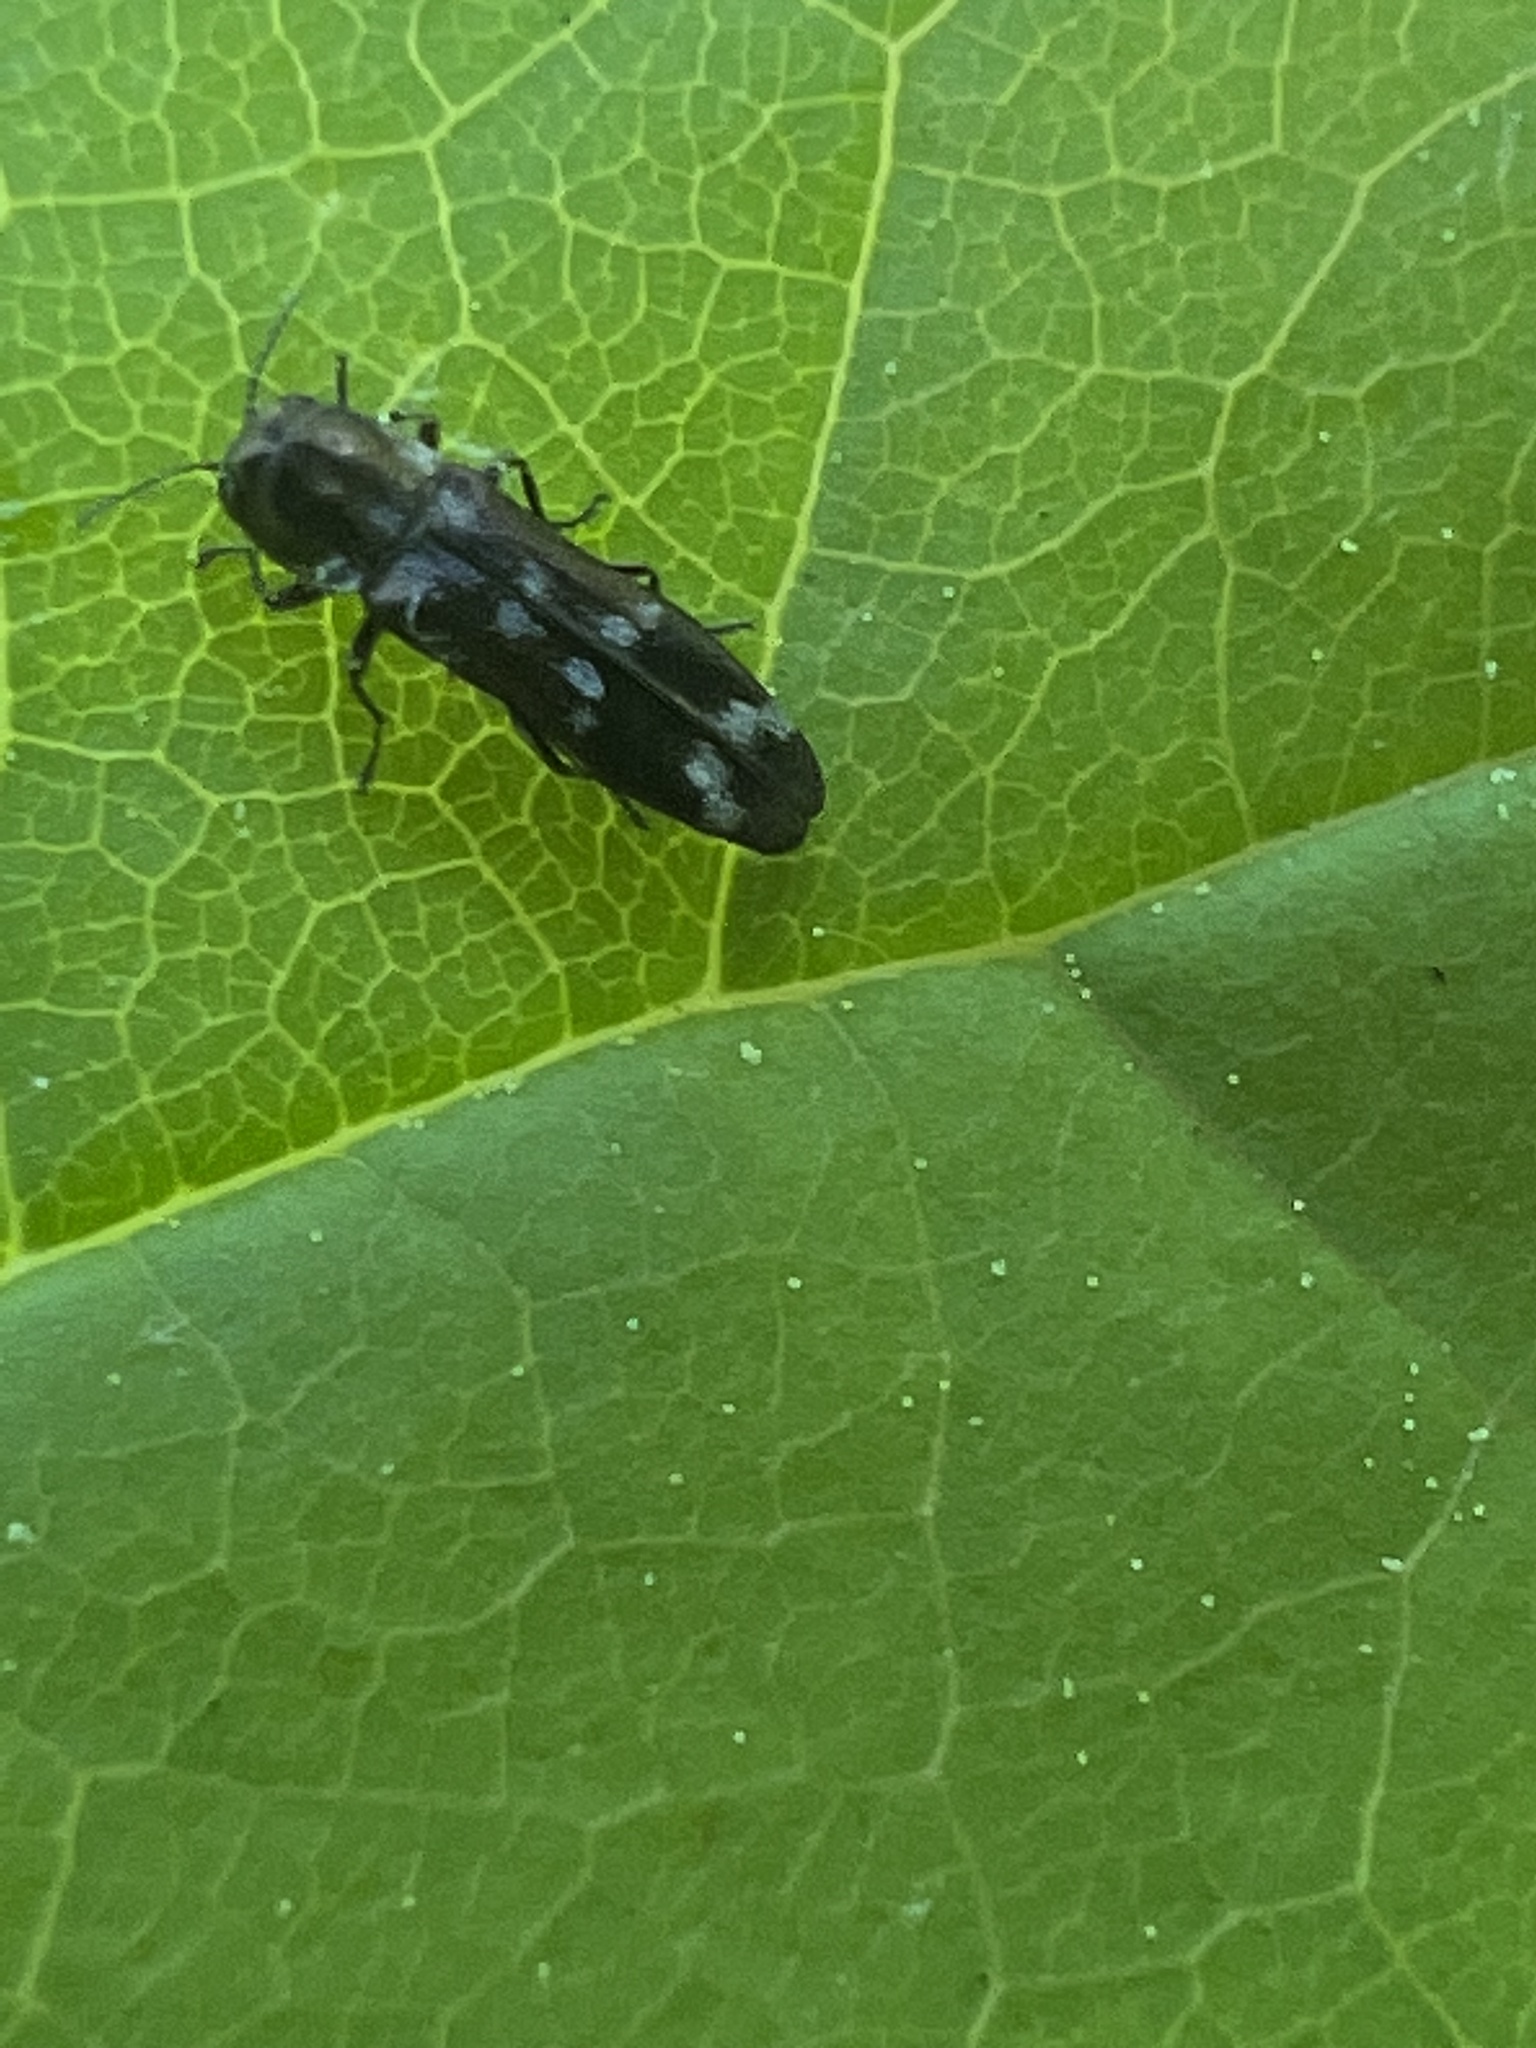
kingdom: Animalia
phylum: Arthropoda
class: Insecta
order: Coleoptera
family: Buprestidae
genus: Agrilus
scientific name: Agrilus subcinctus
